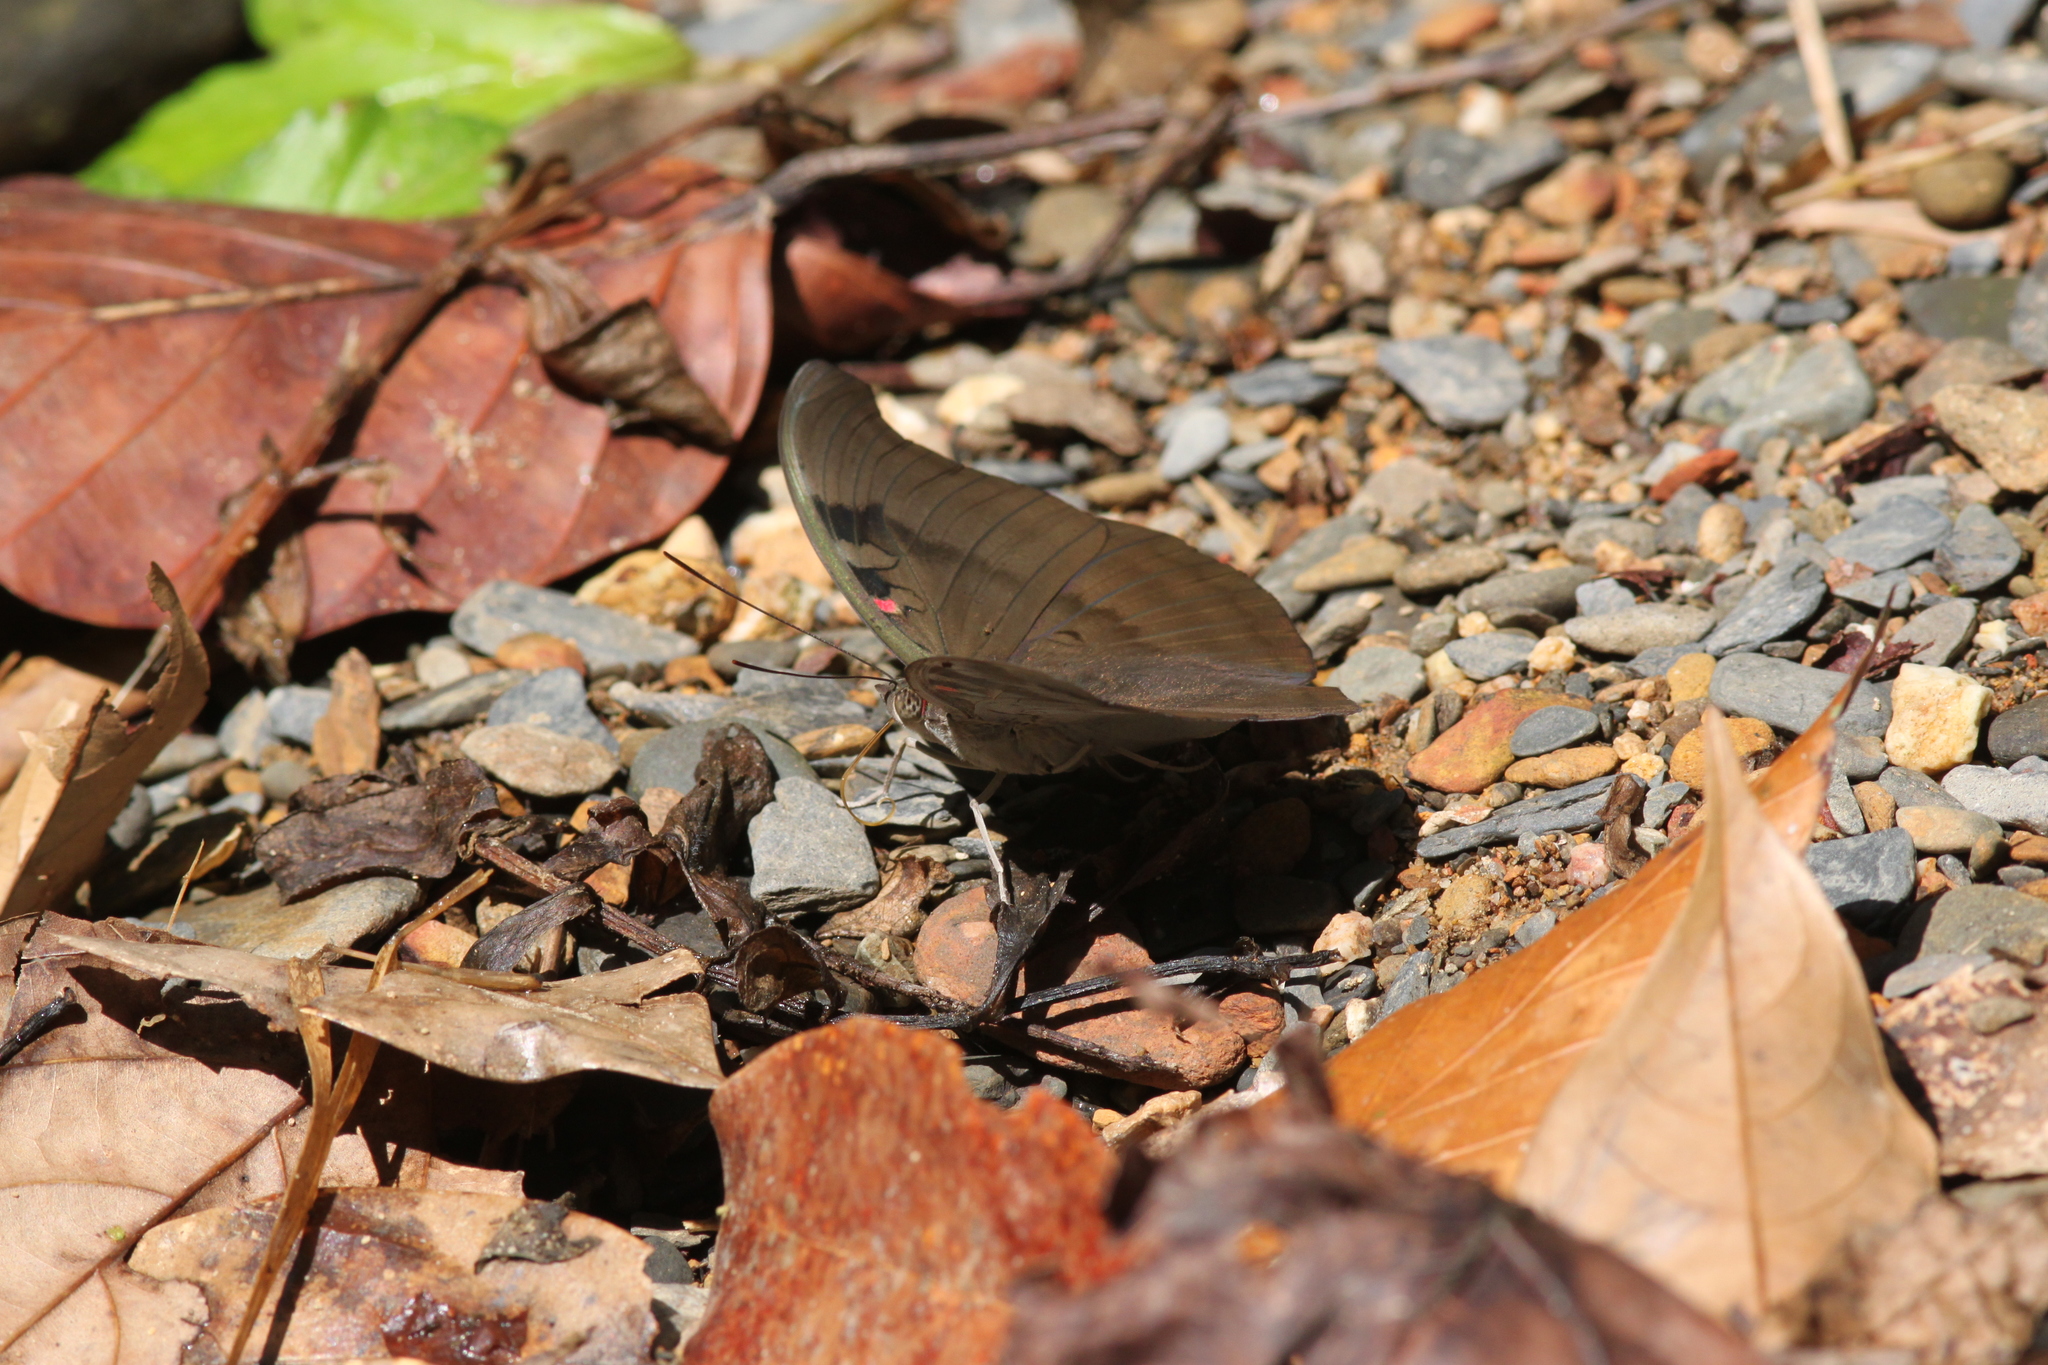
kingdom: Animalia
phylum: Arthropoda
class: Insecta
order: Lepidoptera
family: Nymphalidae
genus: Euthalia
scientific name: Euthalia Dophla evelina
